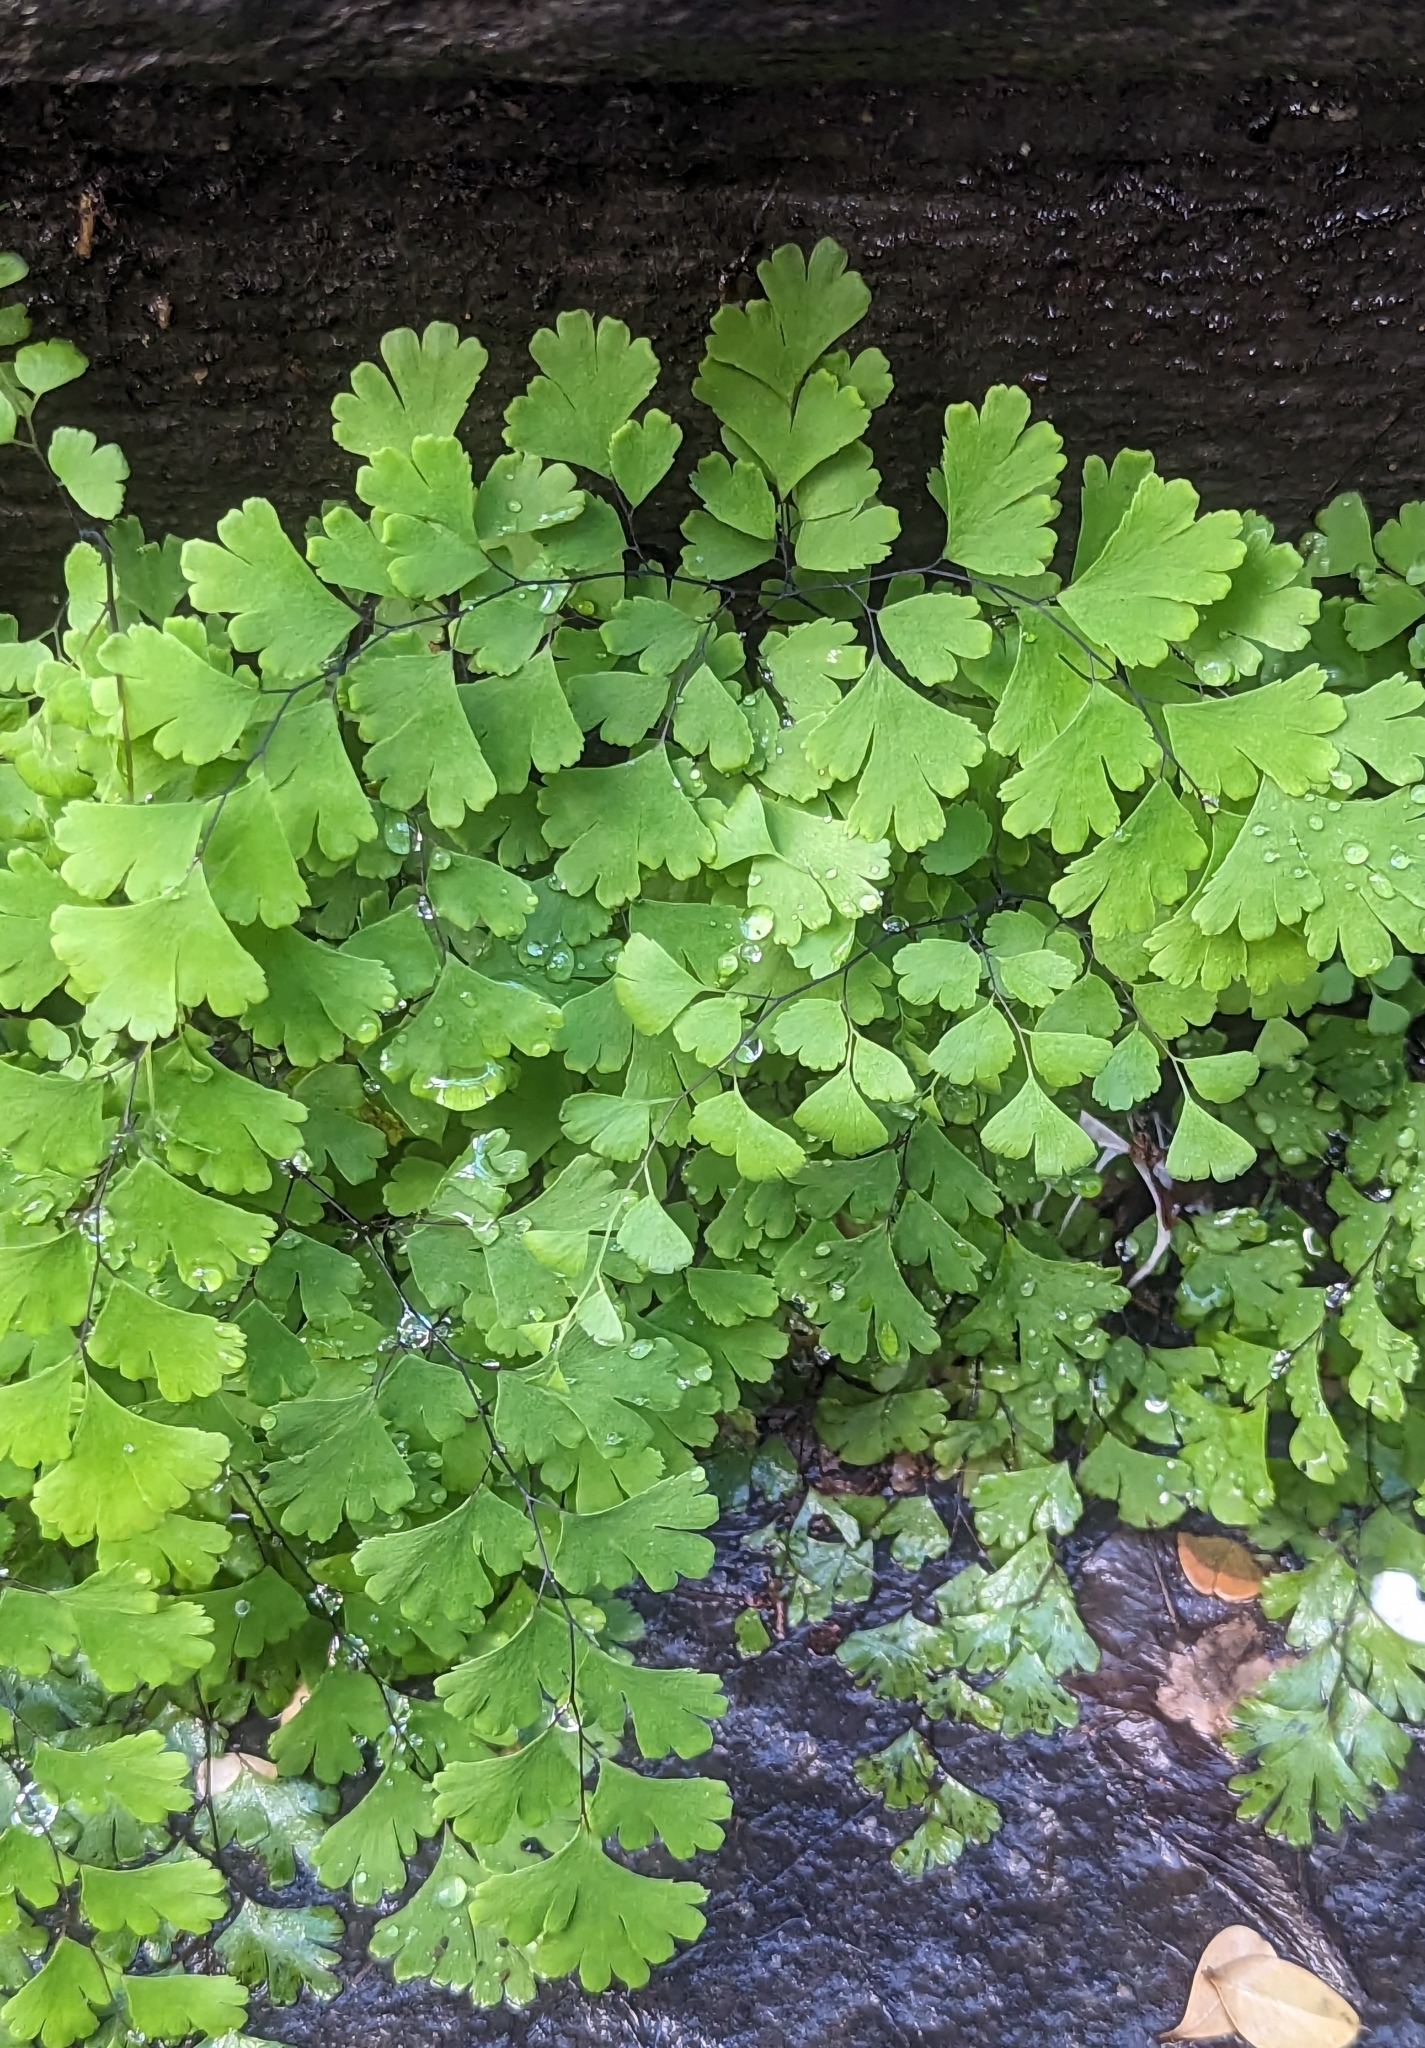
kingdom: Plantae
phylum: Tracheophyta
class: Polypodiopsida
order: Polypodiales
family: Pteridaceae
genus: Adiantum
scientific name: Adiantum capillus-veneris
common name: Maidenhair fern
